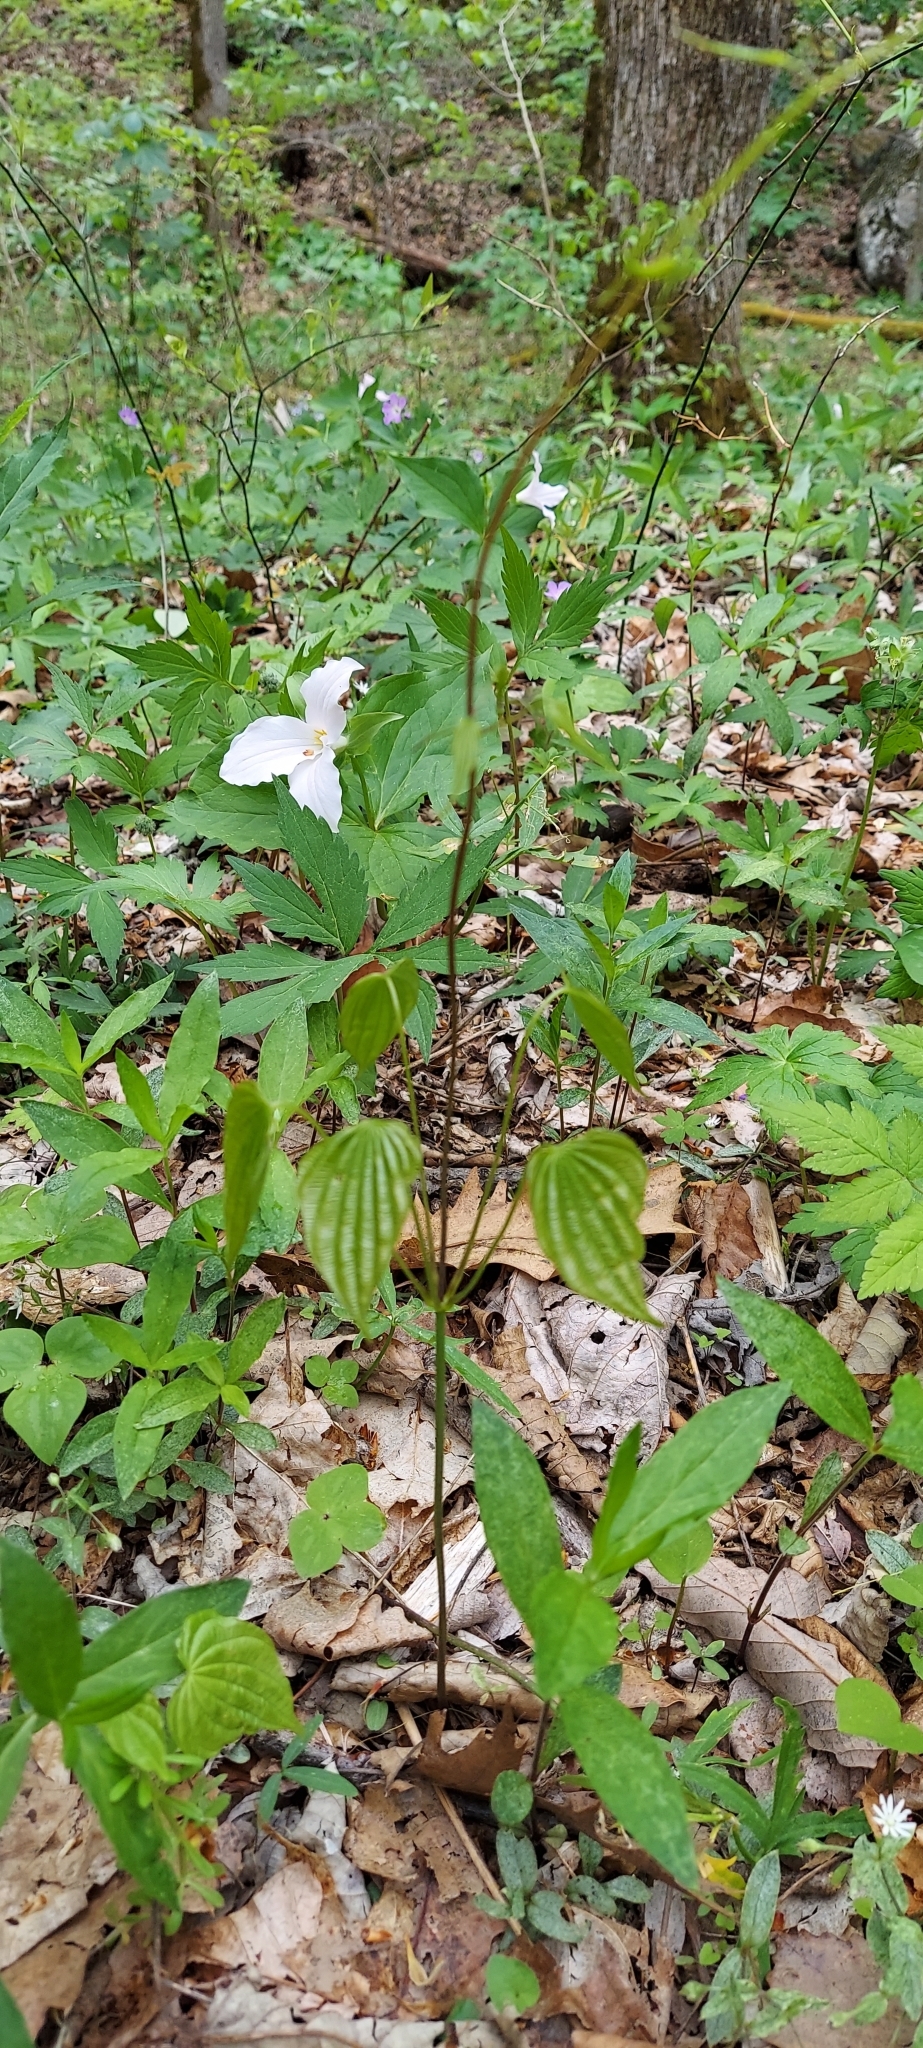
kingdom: Plantae
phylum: Tracheophyta
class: Liliopsida
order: Dioscoreales
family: Dioscoreaceae
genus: Dioscorea
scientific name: Dioscorea villosa
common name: Wild yam
